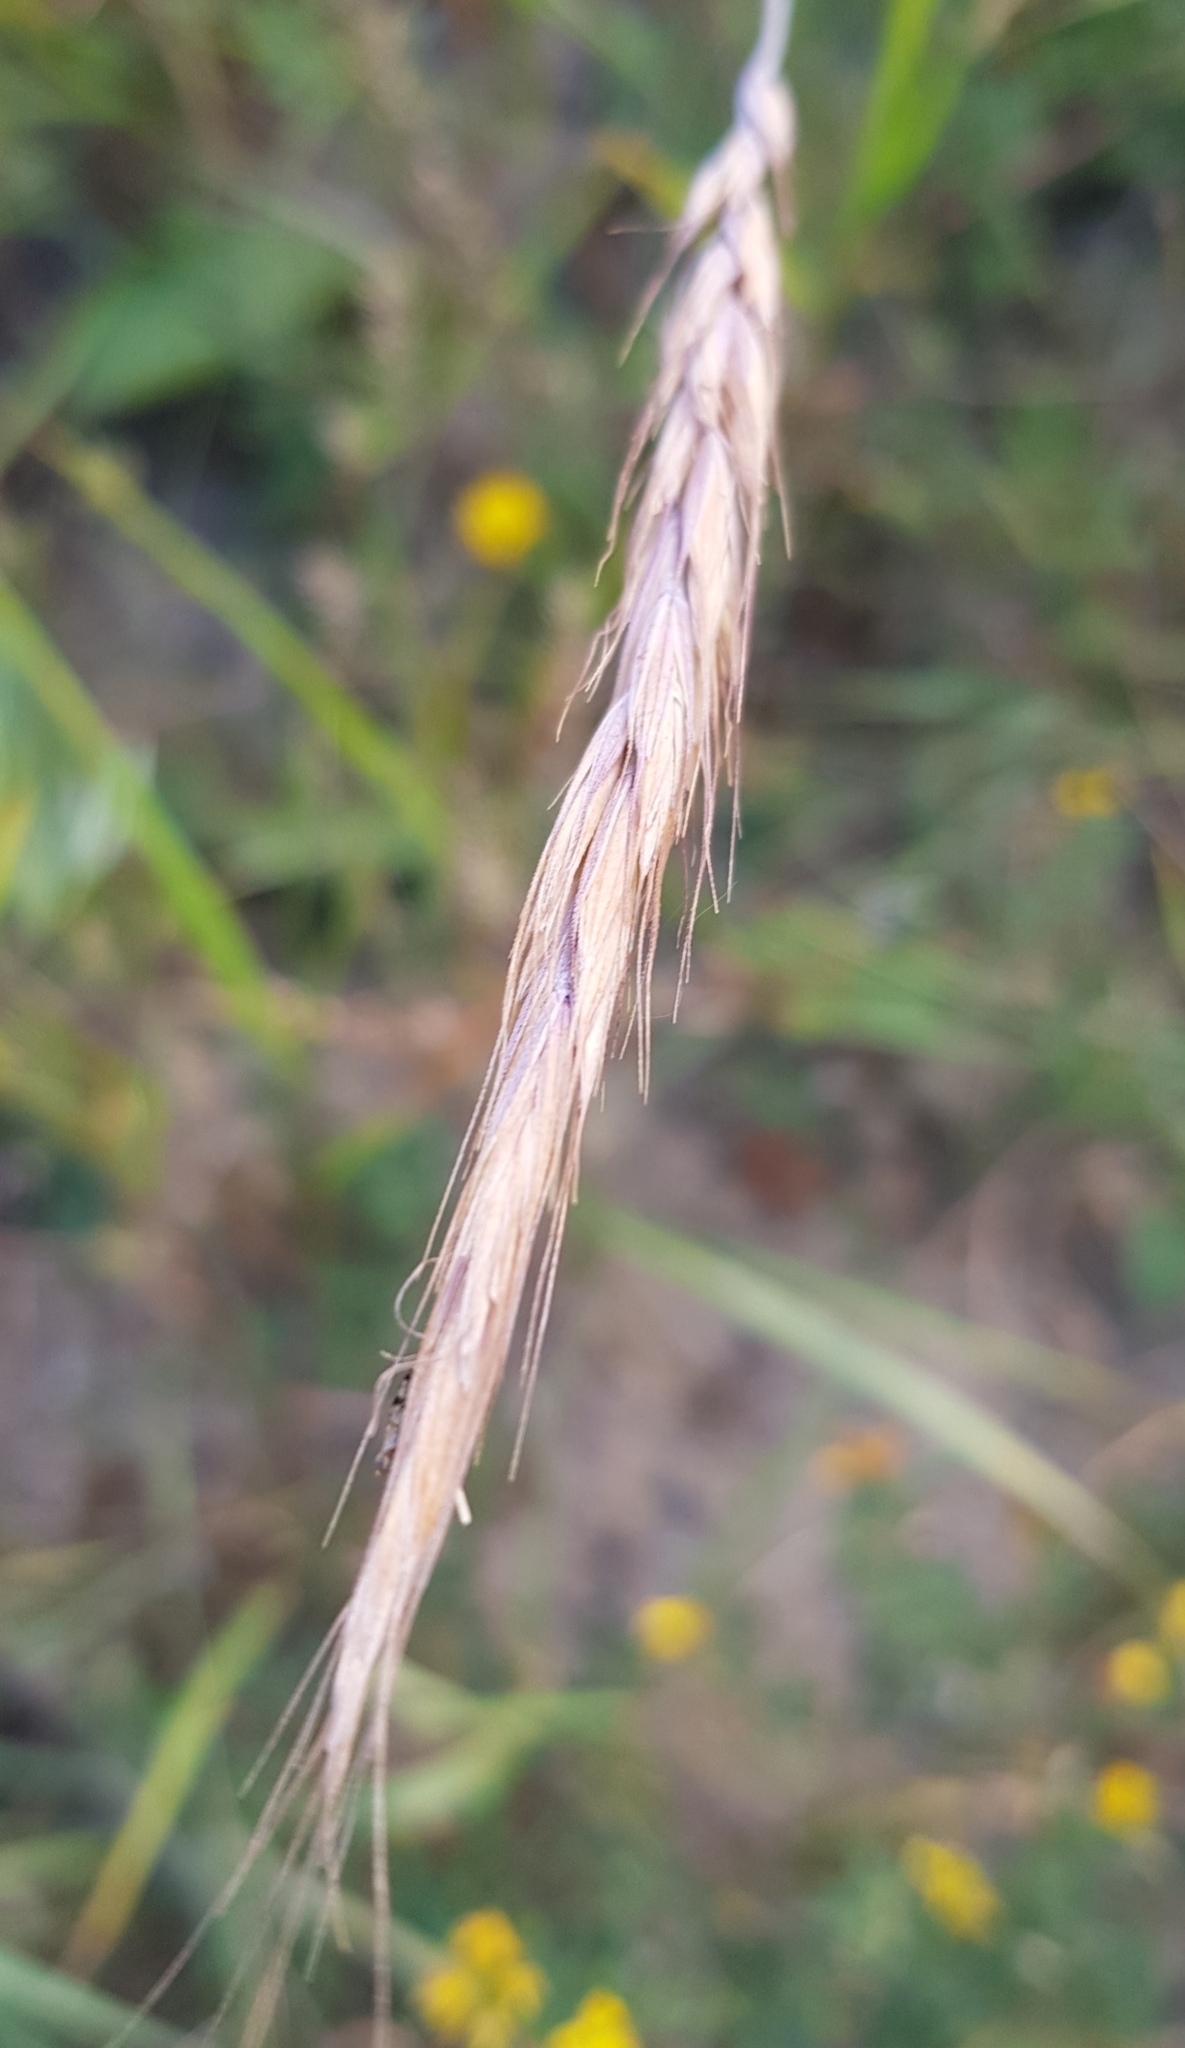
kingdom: Plantae
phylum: Tracheophyta
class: Liliopsida
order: Poales
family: Poaceae
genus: Elymus
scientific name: Elymus sibiricus
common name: Siberian wildrye
